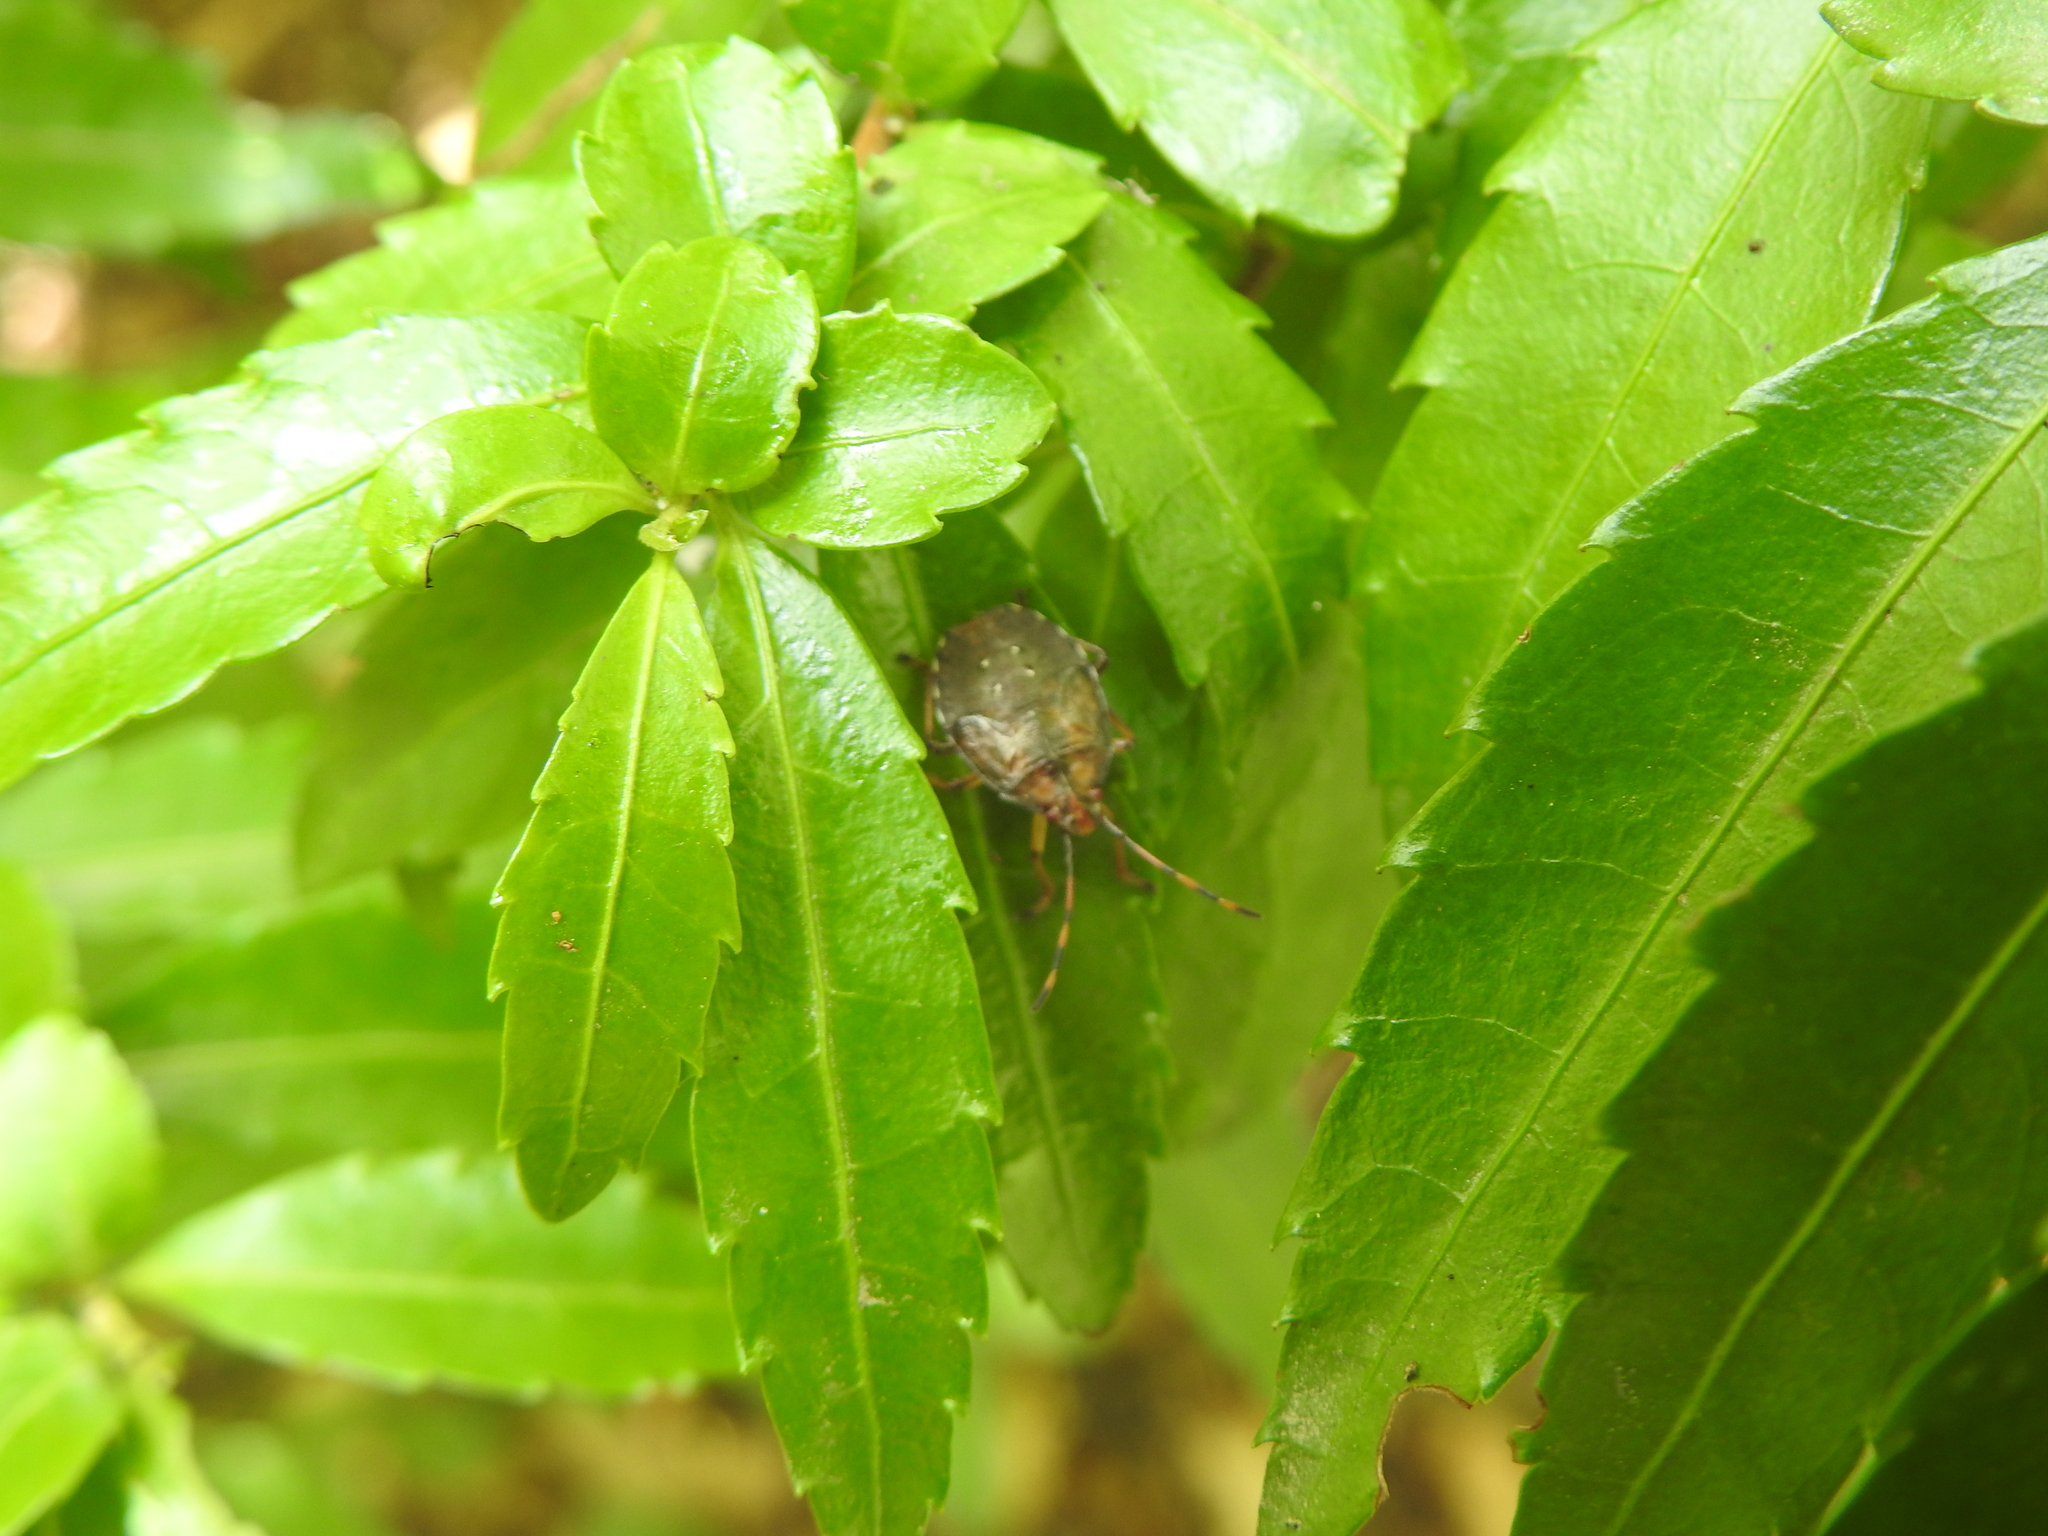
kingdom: Animalia
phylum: Arthropoda
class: Insecta
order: Hemiptera
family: Acanthosomatidae
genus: Planois
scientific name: Planois patagonus
